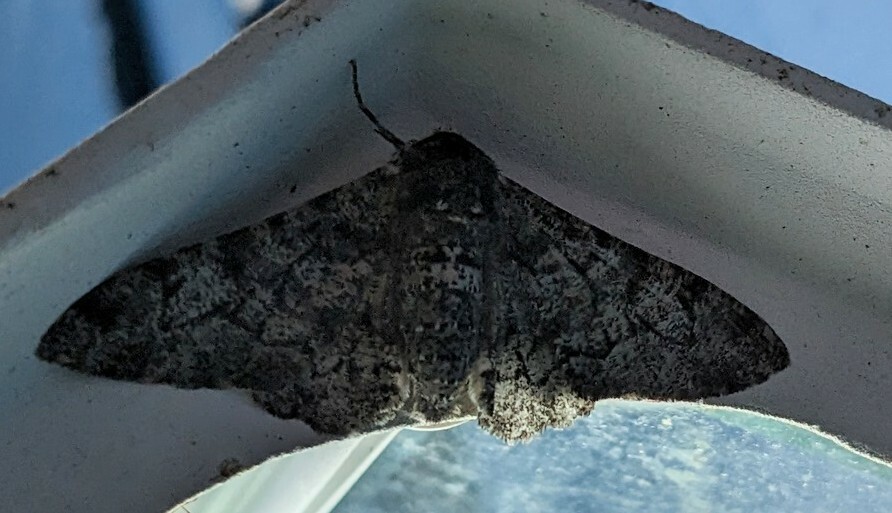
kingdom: Animalia
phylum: Arthropoda
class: Insecta
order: Lepidoptera
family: Geometridae
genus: Biston
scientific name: Biston betularia
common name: Peppered moth
